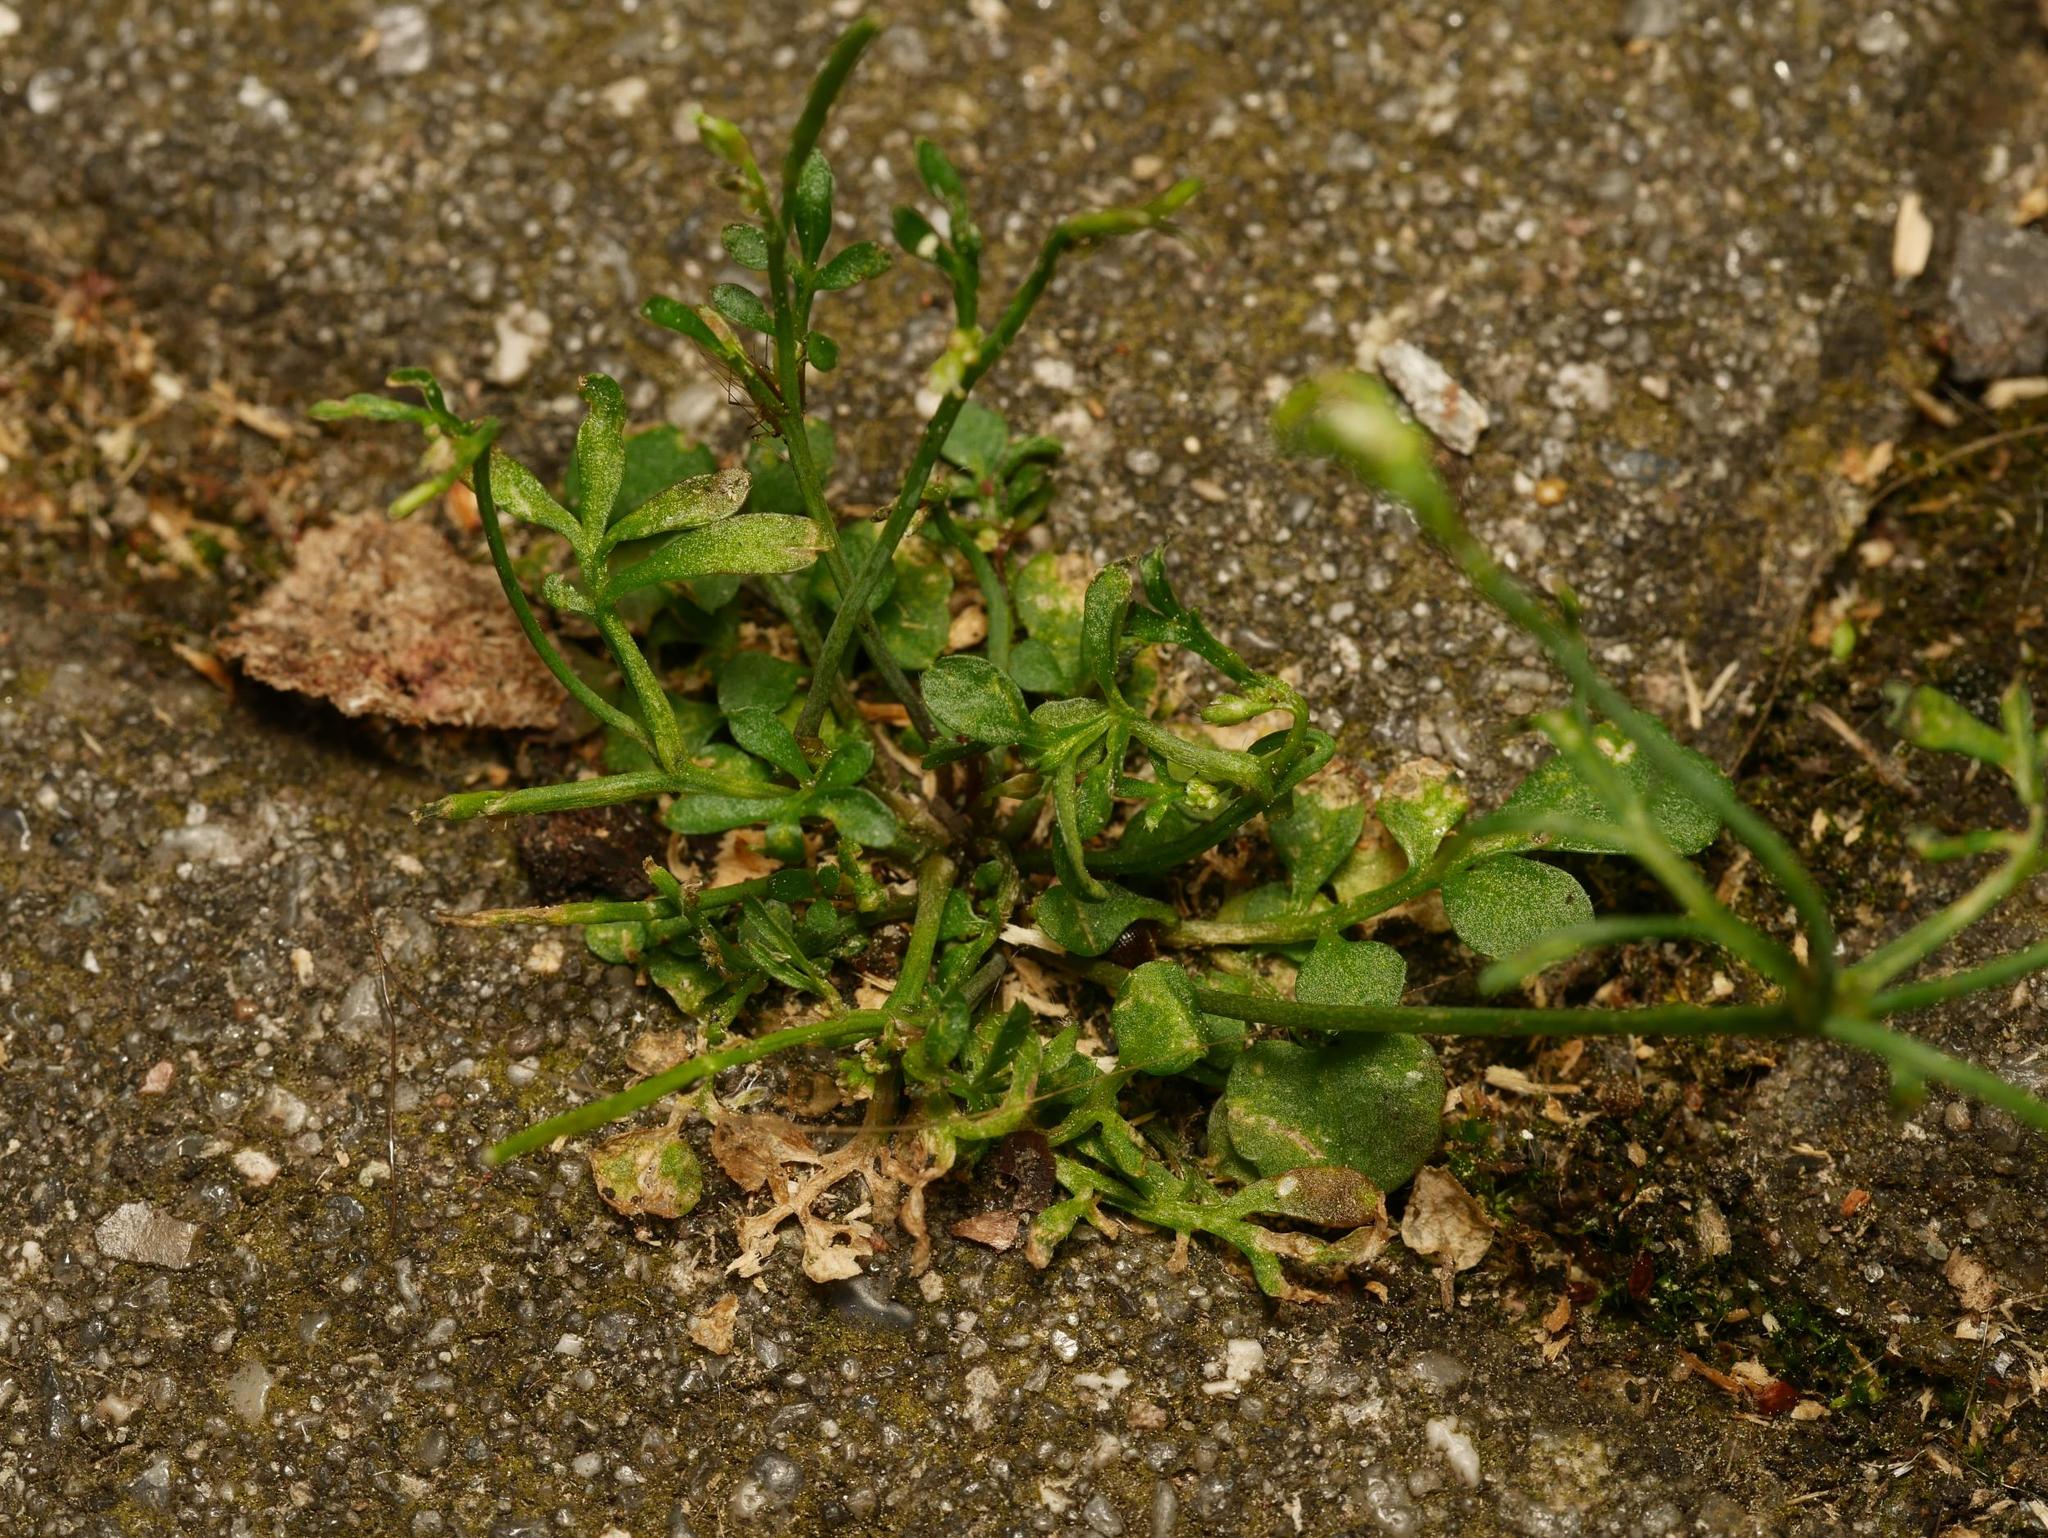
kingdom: Plantae
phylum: Tracheophyta
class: Magnoliopsida
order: Brassicales
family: Brassicaceae
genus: Cardamine
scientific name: Cardamine hirsuta
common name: Hairy bittercress
